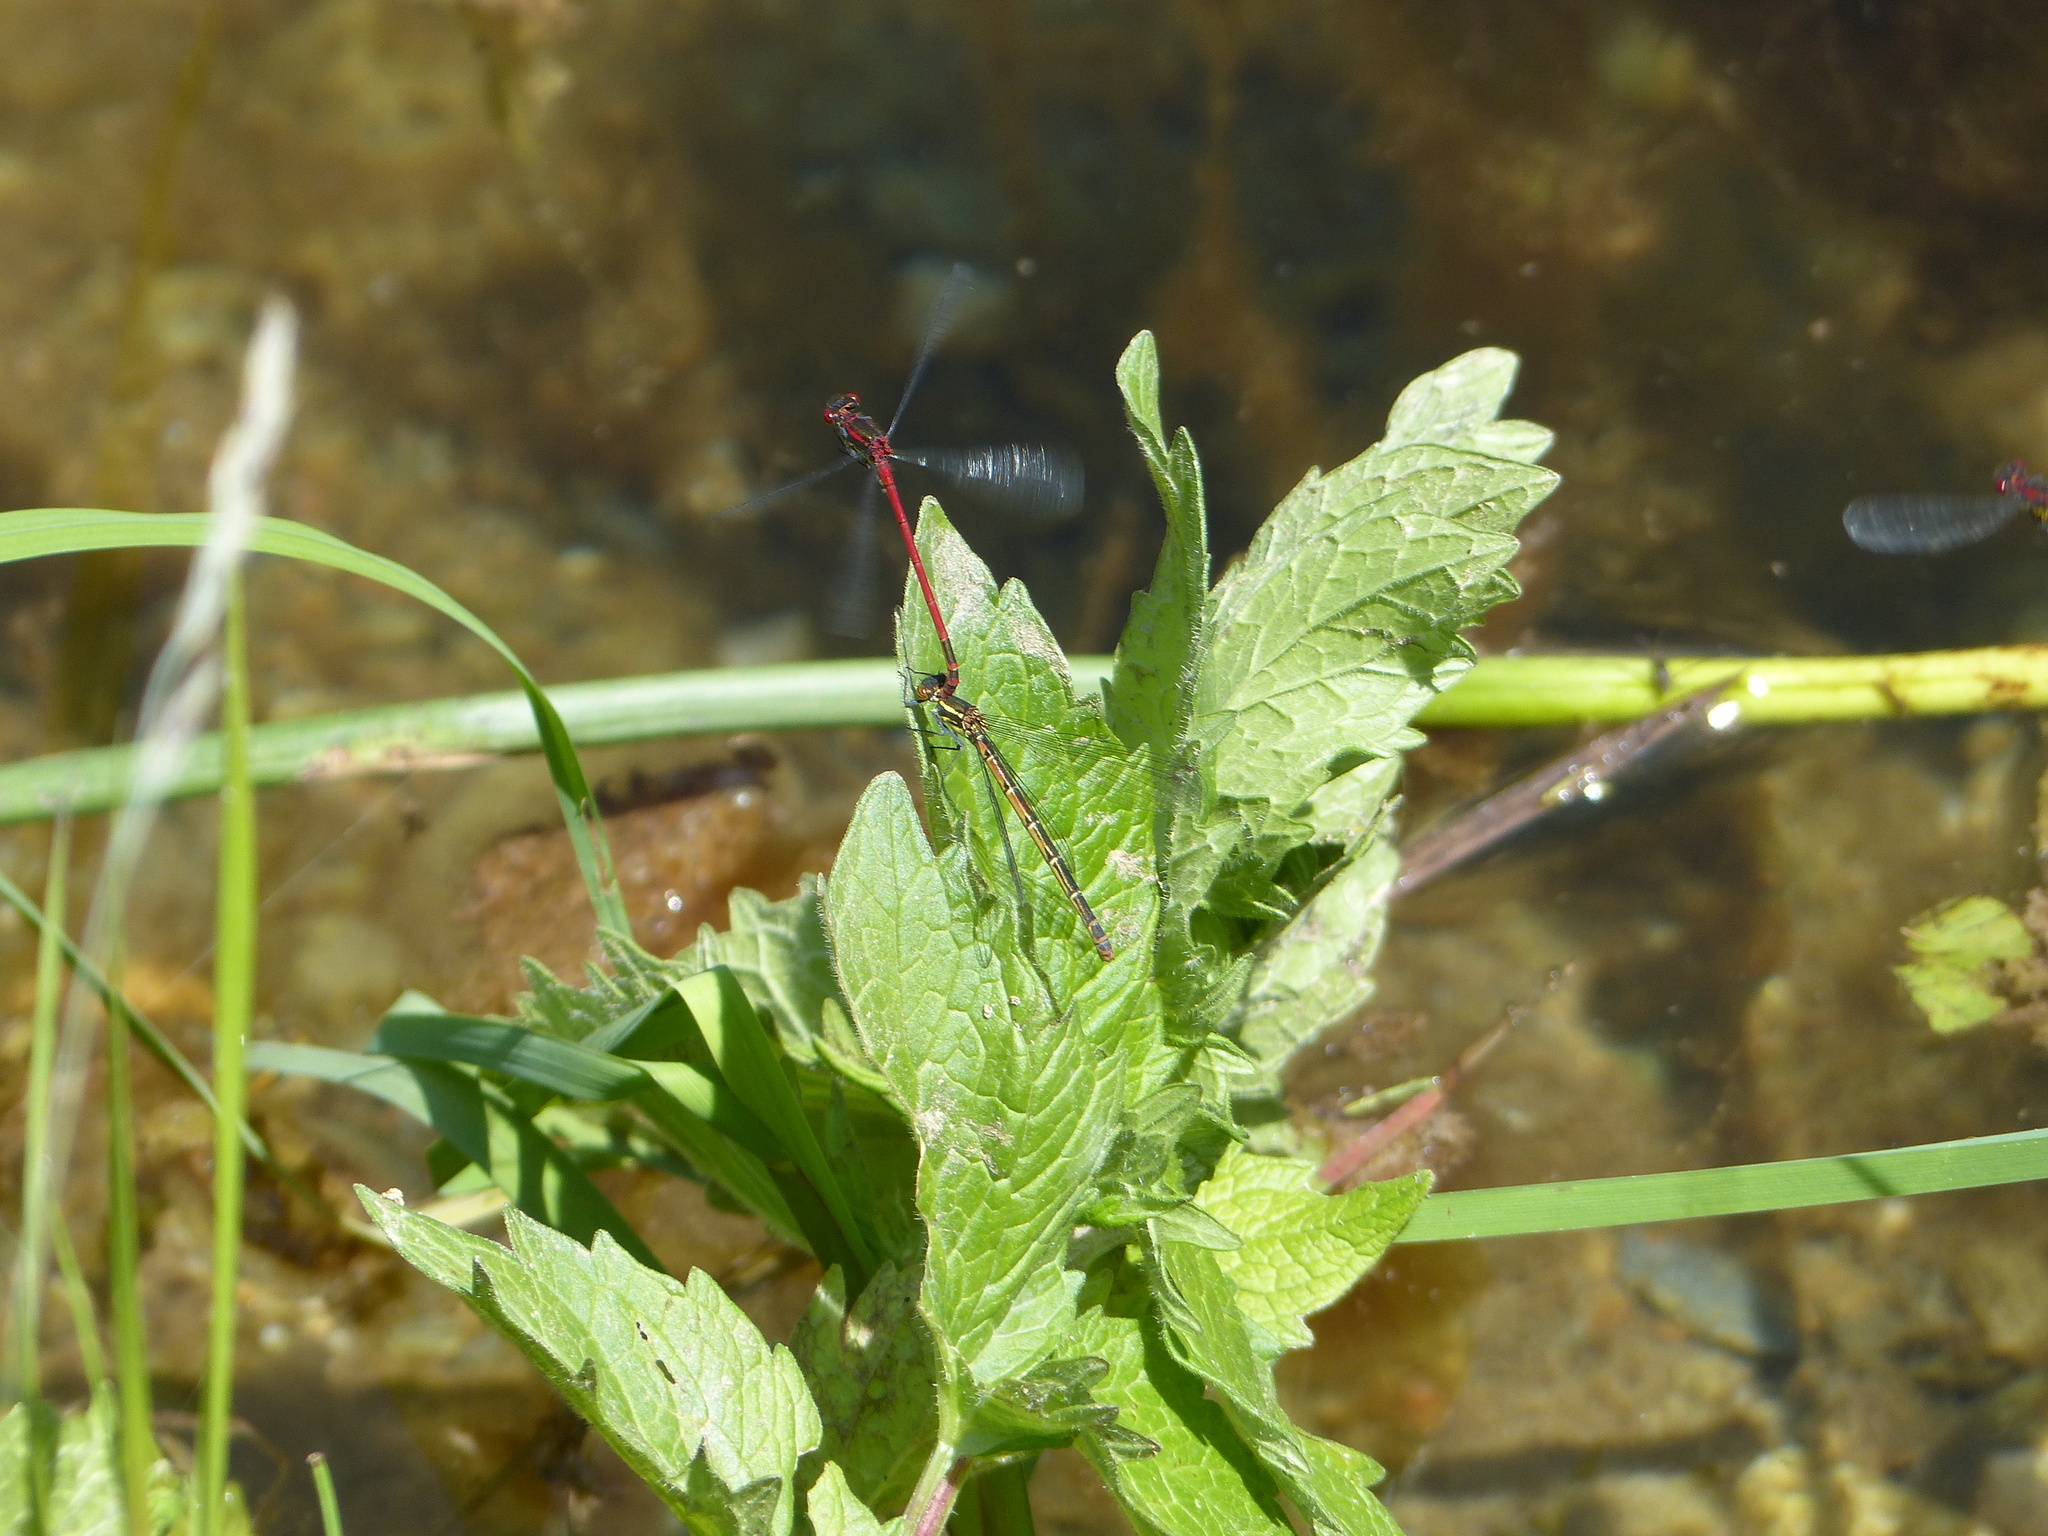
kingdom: Animalia
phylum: Arthropoda
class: Insecta
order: Odonata
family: Coenagrionidae
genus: Pyrrhosoma
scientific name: Pyrrhosoma nymphula
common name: Large red damsel
